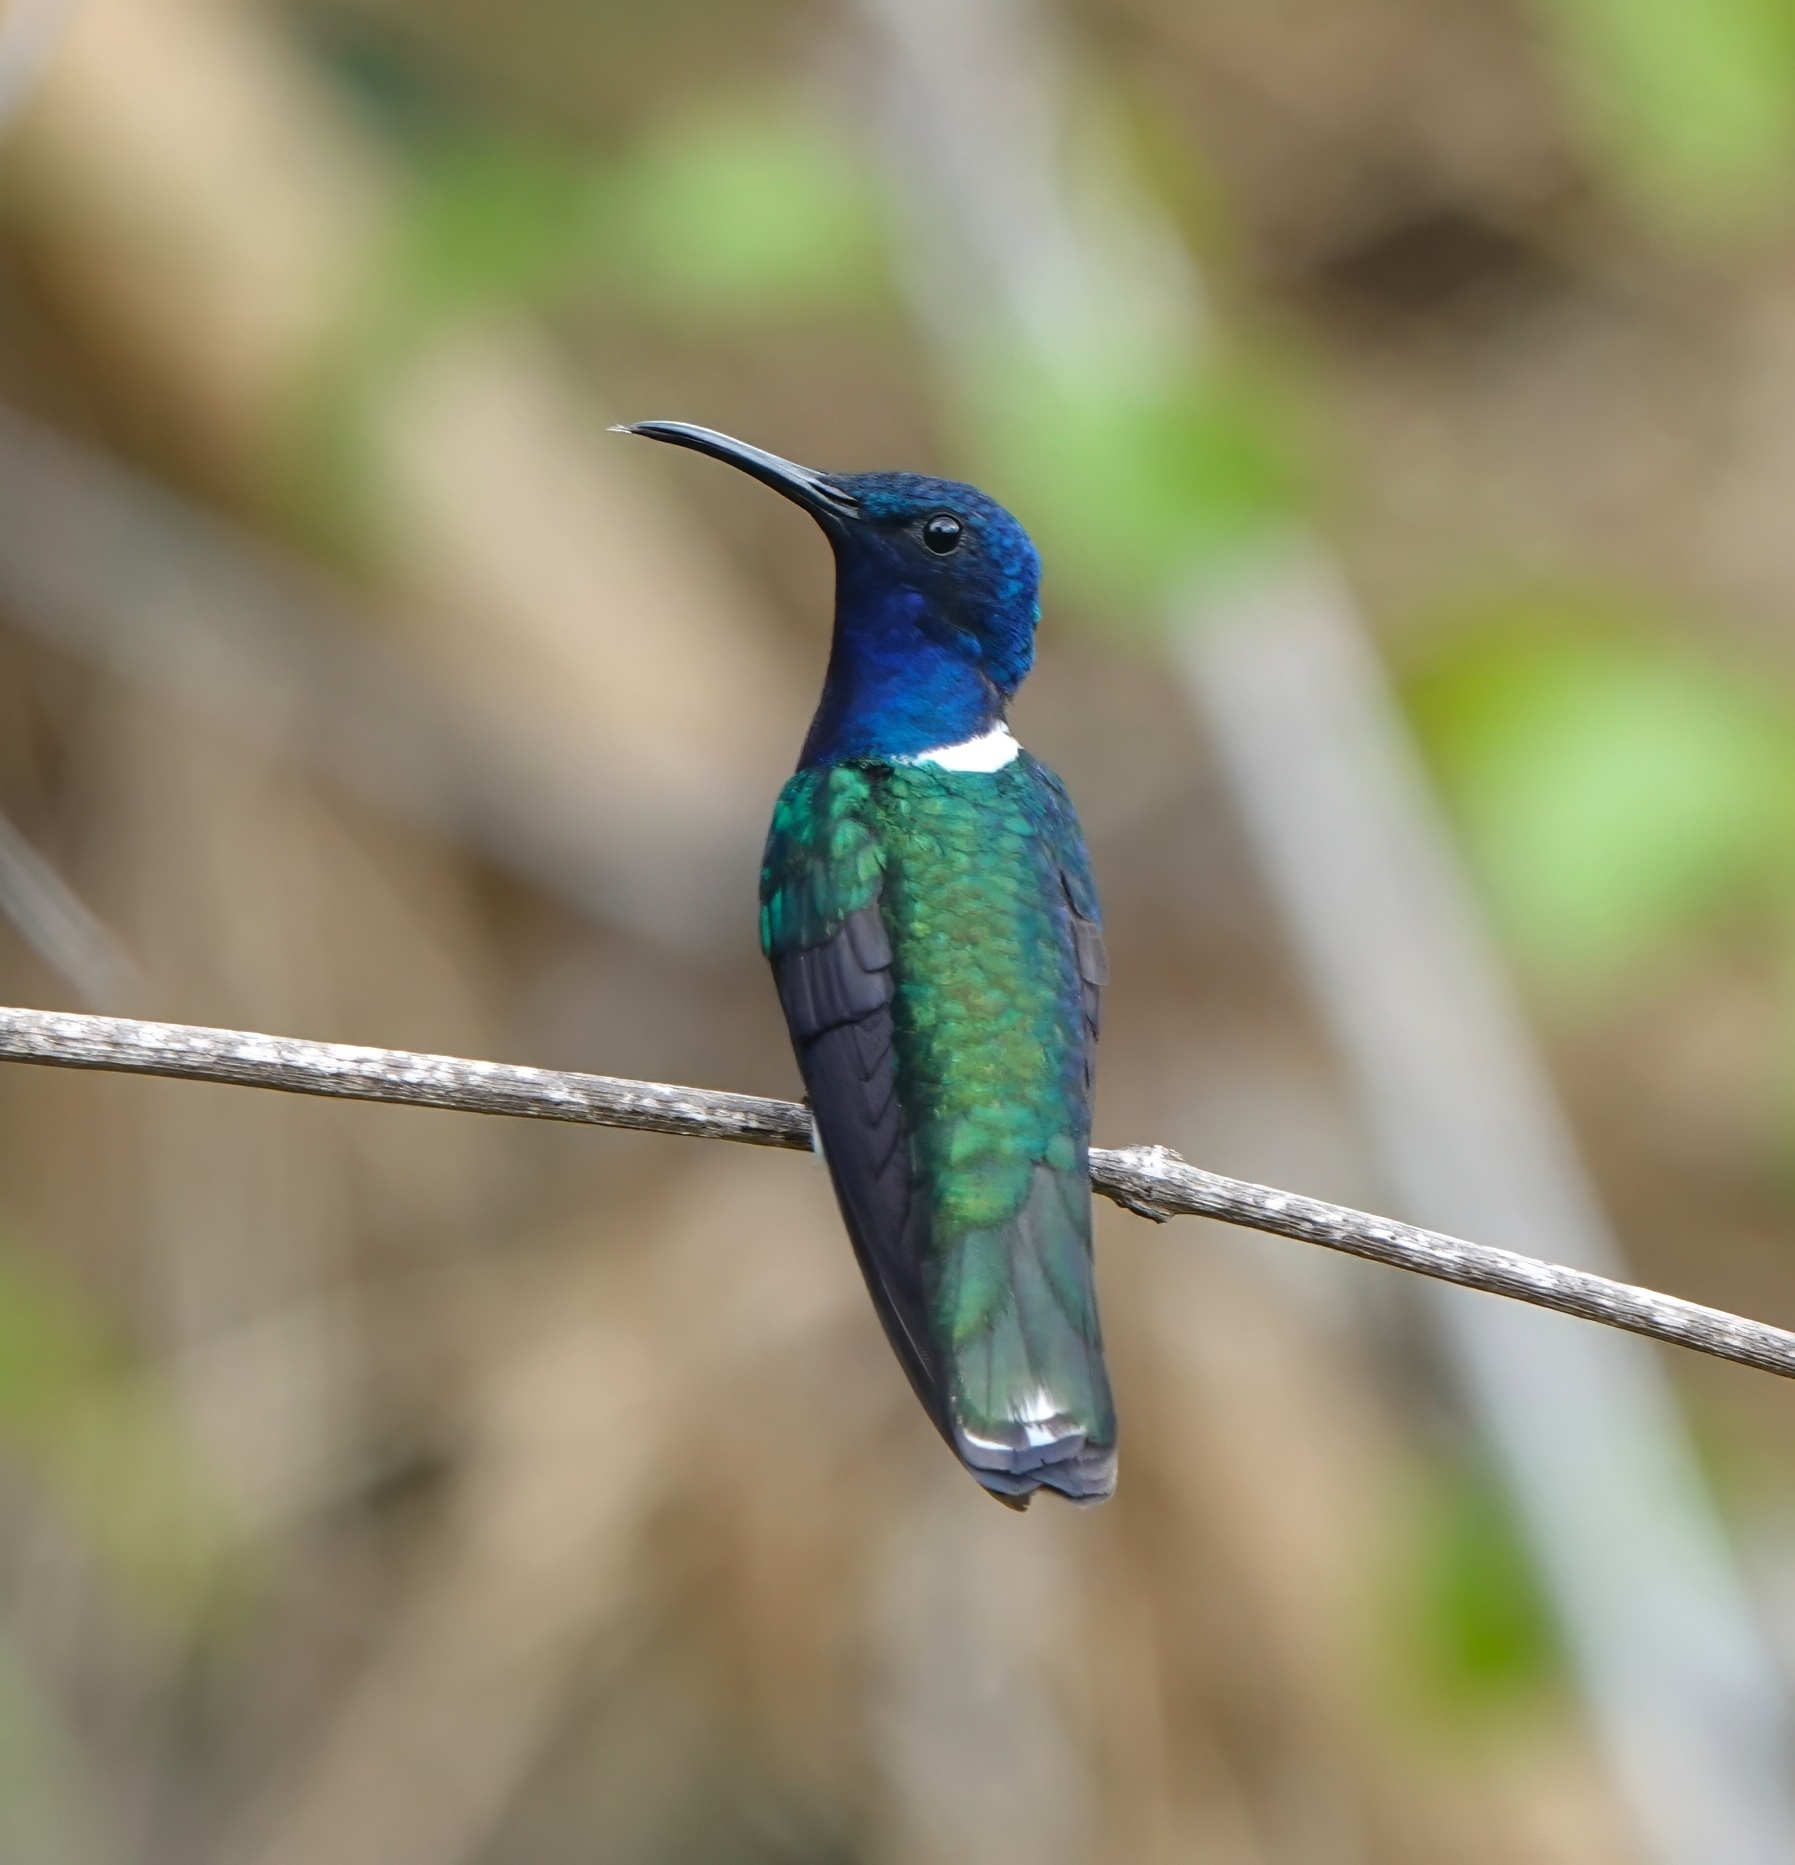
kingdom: Animalia
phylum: Chordata
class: Aves
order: Apodiformes
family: Trochilidae
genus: Florisuga
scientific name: Florisuga mellivora
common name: White-necked jacobin
